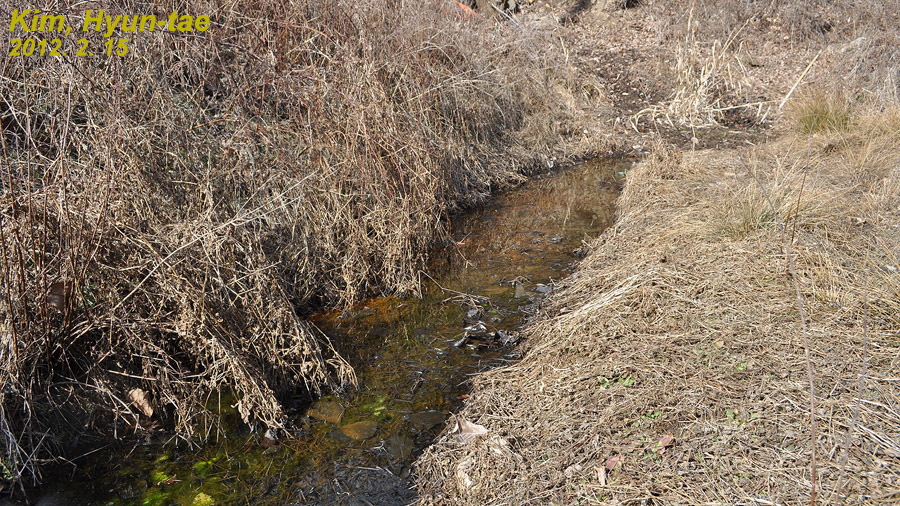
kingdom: Animalia
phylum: Chordata
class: Amphibia
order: Anura
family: Ranidae
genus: Rana
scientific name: Rana uenoi
